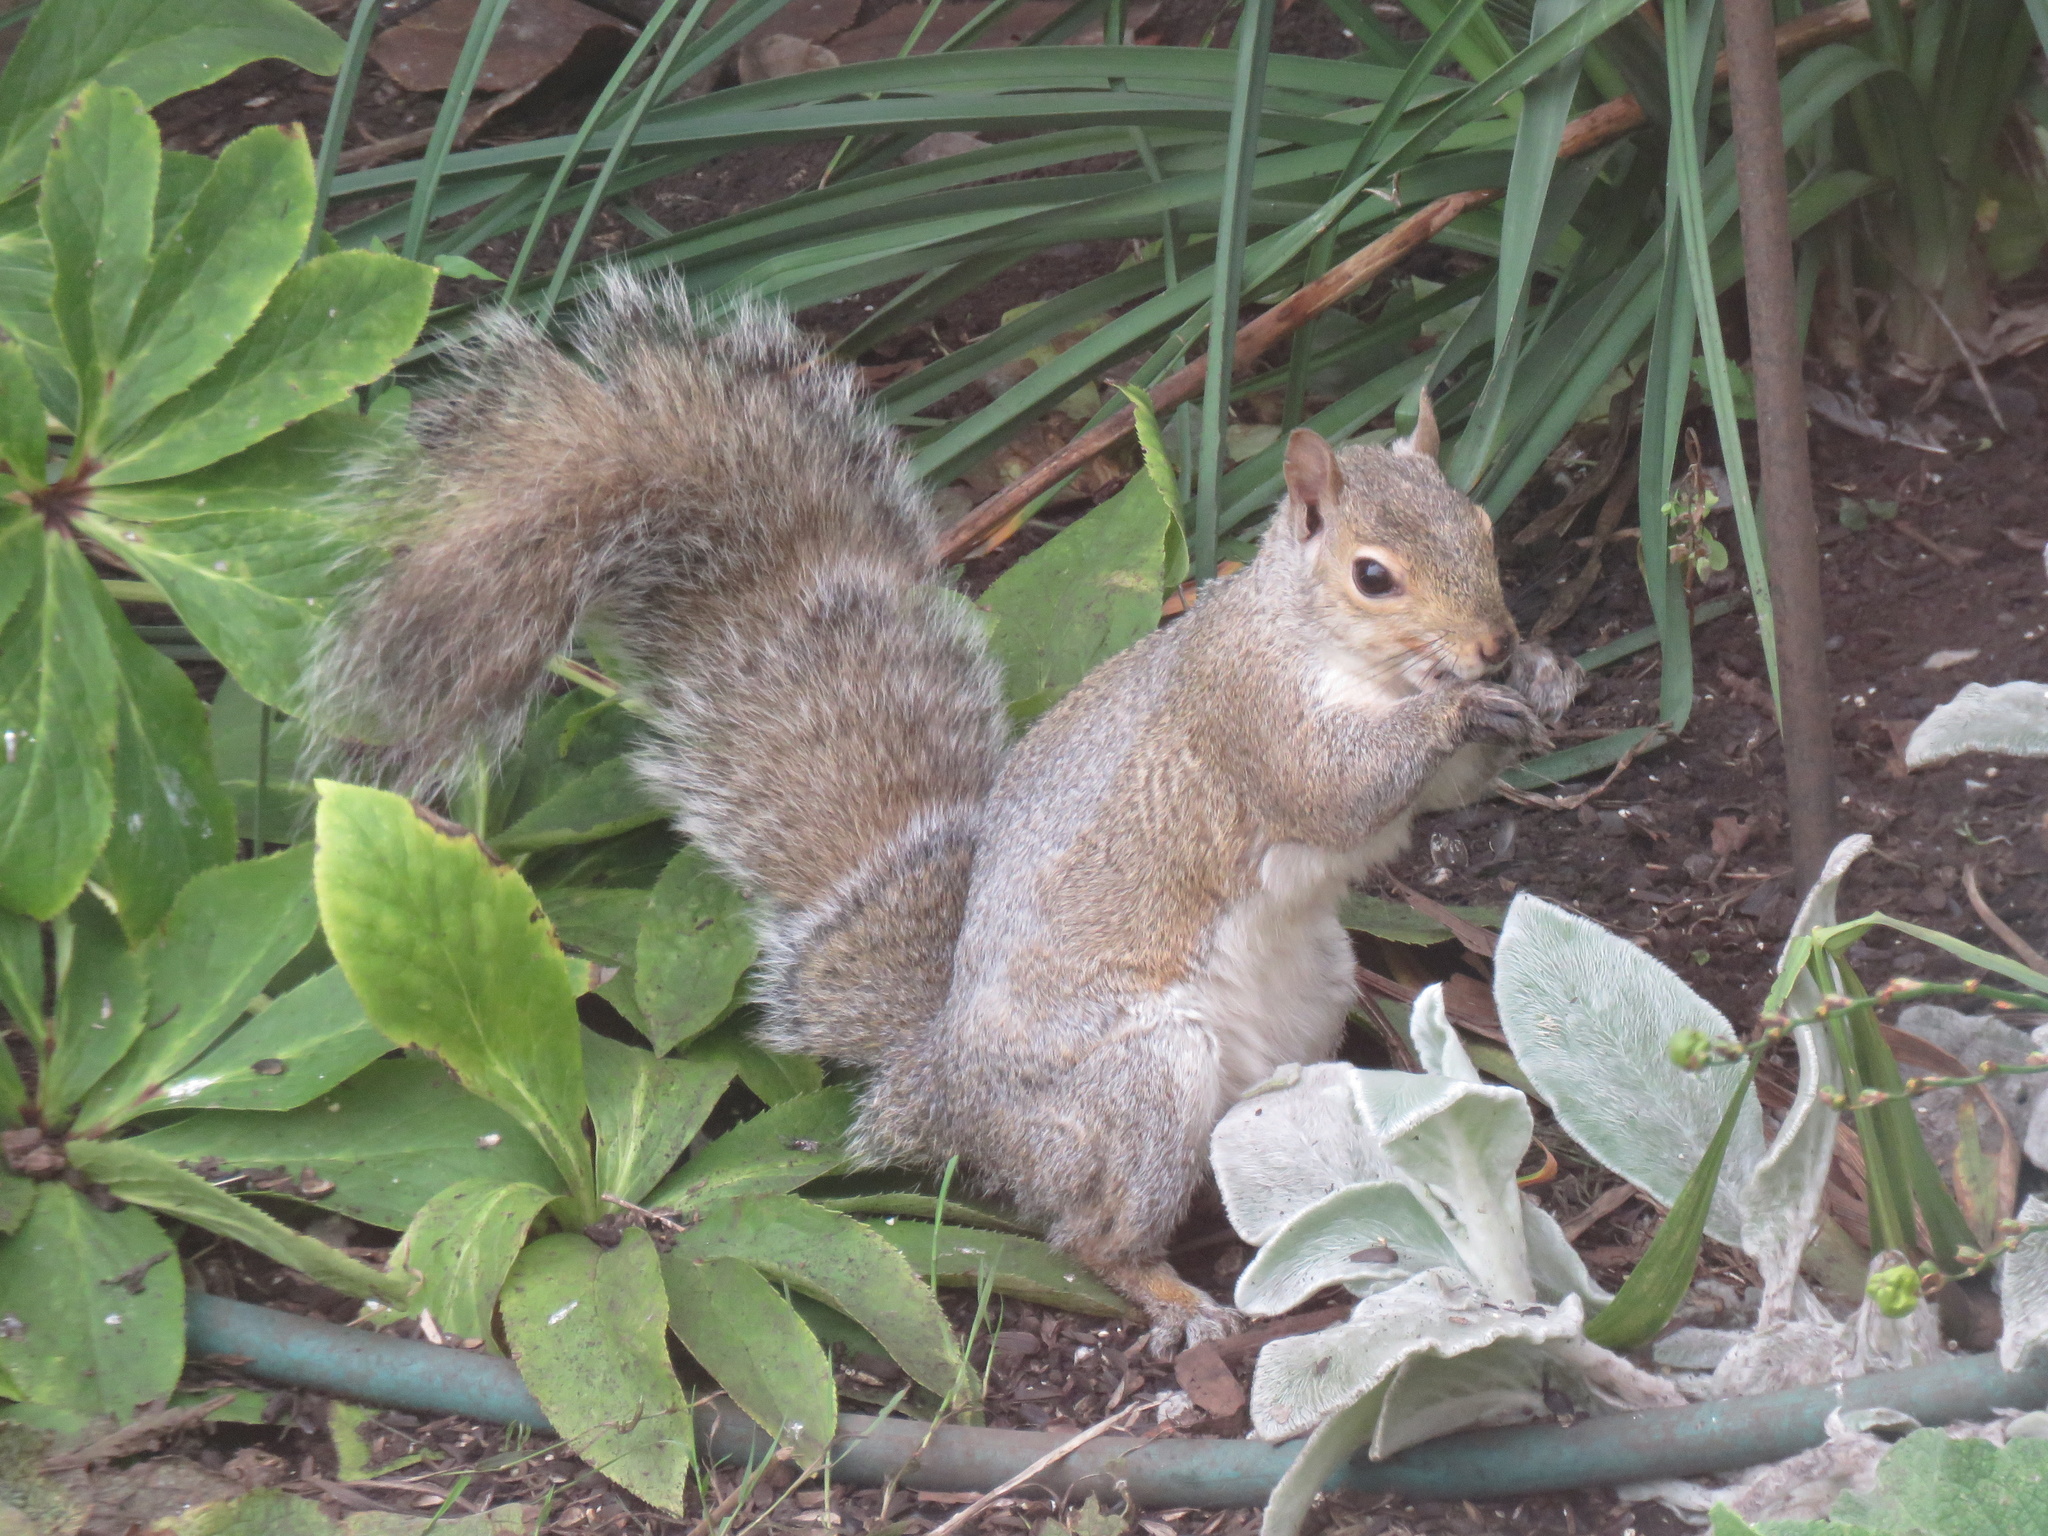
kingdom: Animalia
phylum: Chordata
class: Mammalia
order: Rodentia
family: Sciuridae
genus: Sciurus
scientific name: Sciurus carolinensis
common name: Eastern gray squirrel
